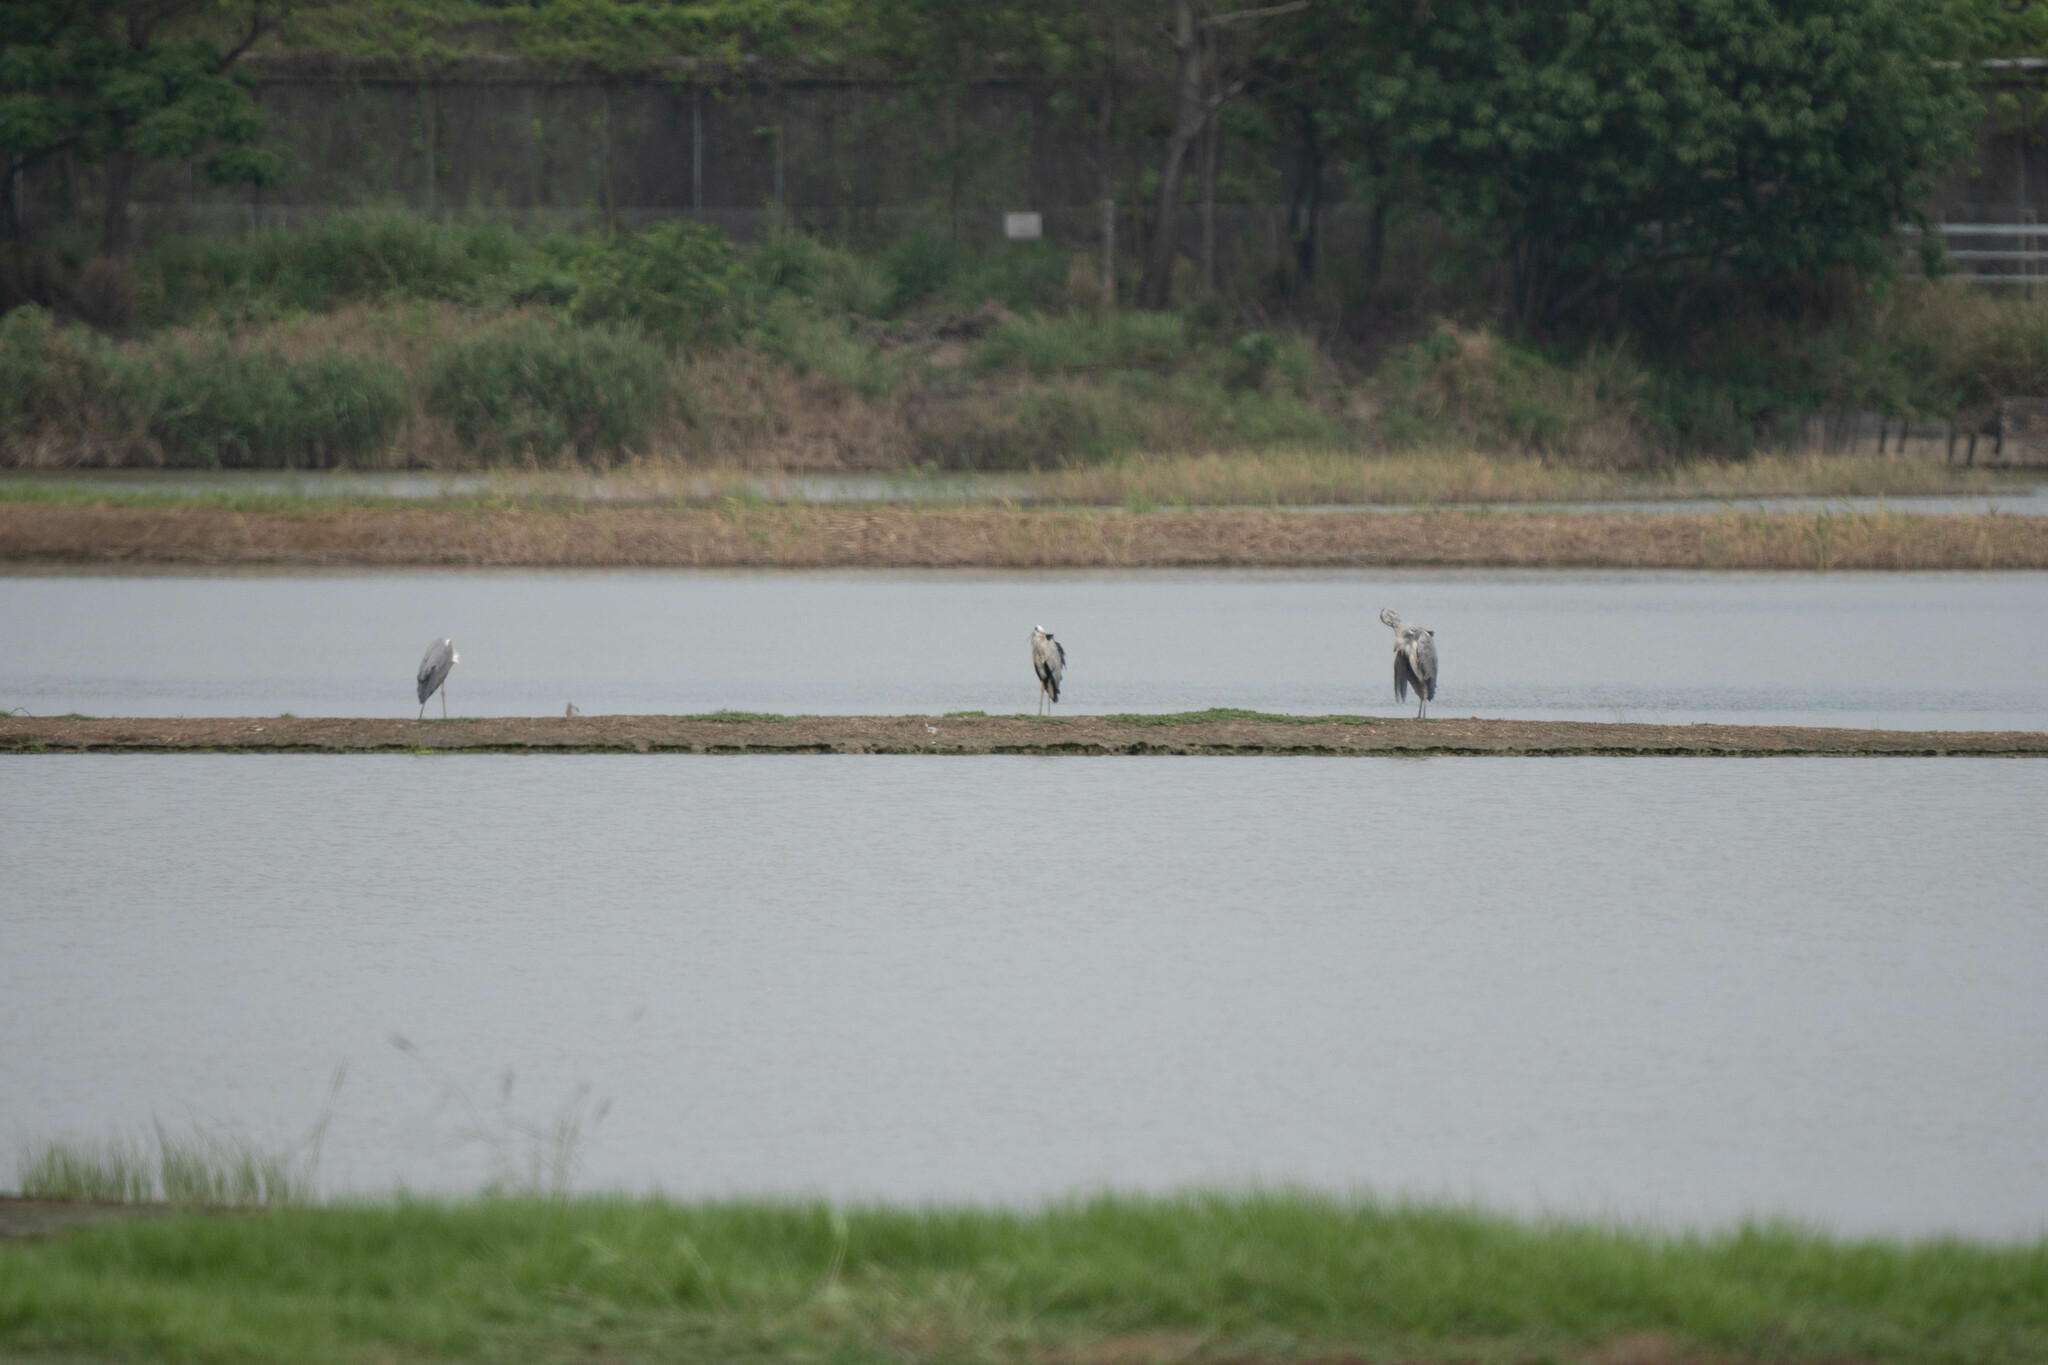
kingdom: Animalia
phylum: Chordata
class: Aves
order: Pelecaniformes
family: Ardeidae
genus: Ardea
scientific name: Ardea cinerea
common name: Grey heron
